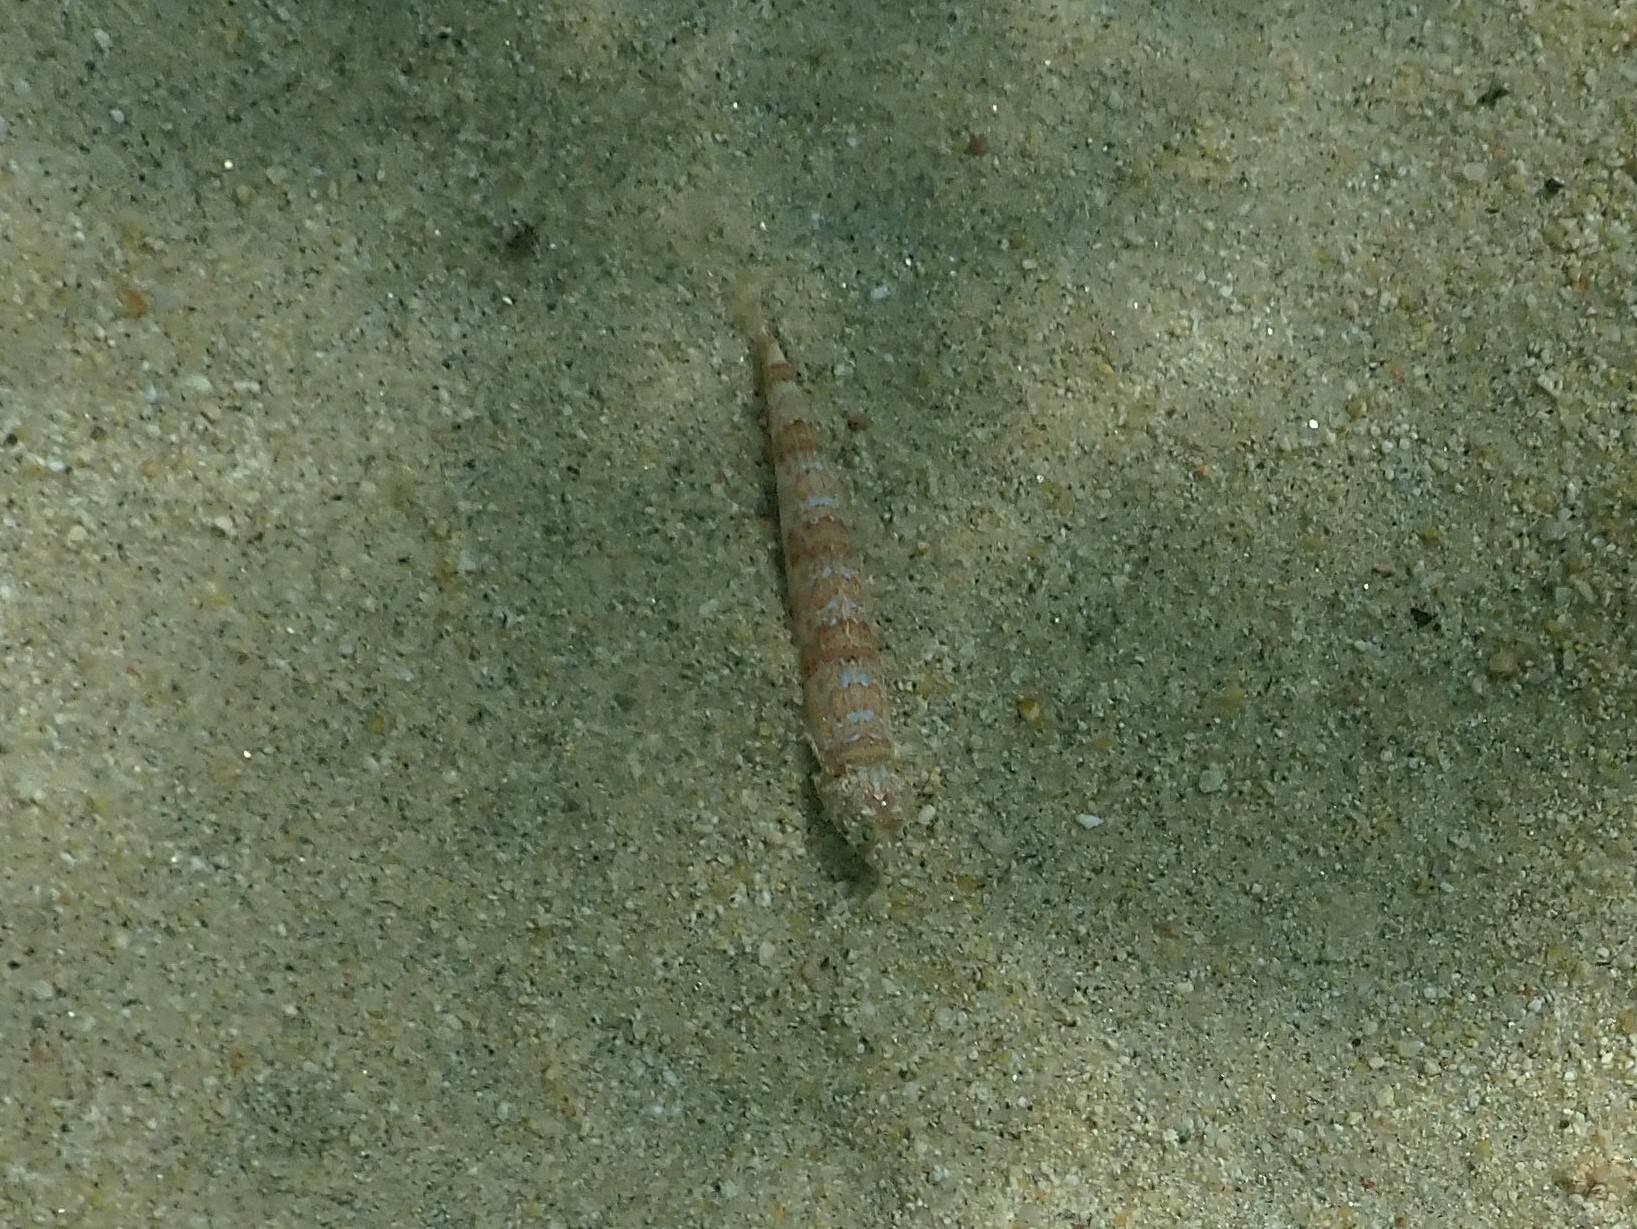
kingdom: Animalia
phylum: Chordata
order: Aulopiformes
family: Synodontidae
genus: Synodus
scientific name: Synodus lacertinus
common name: Calico lizardfish
